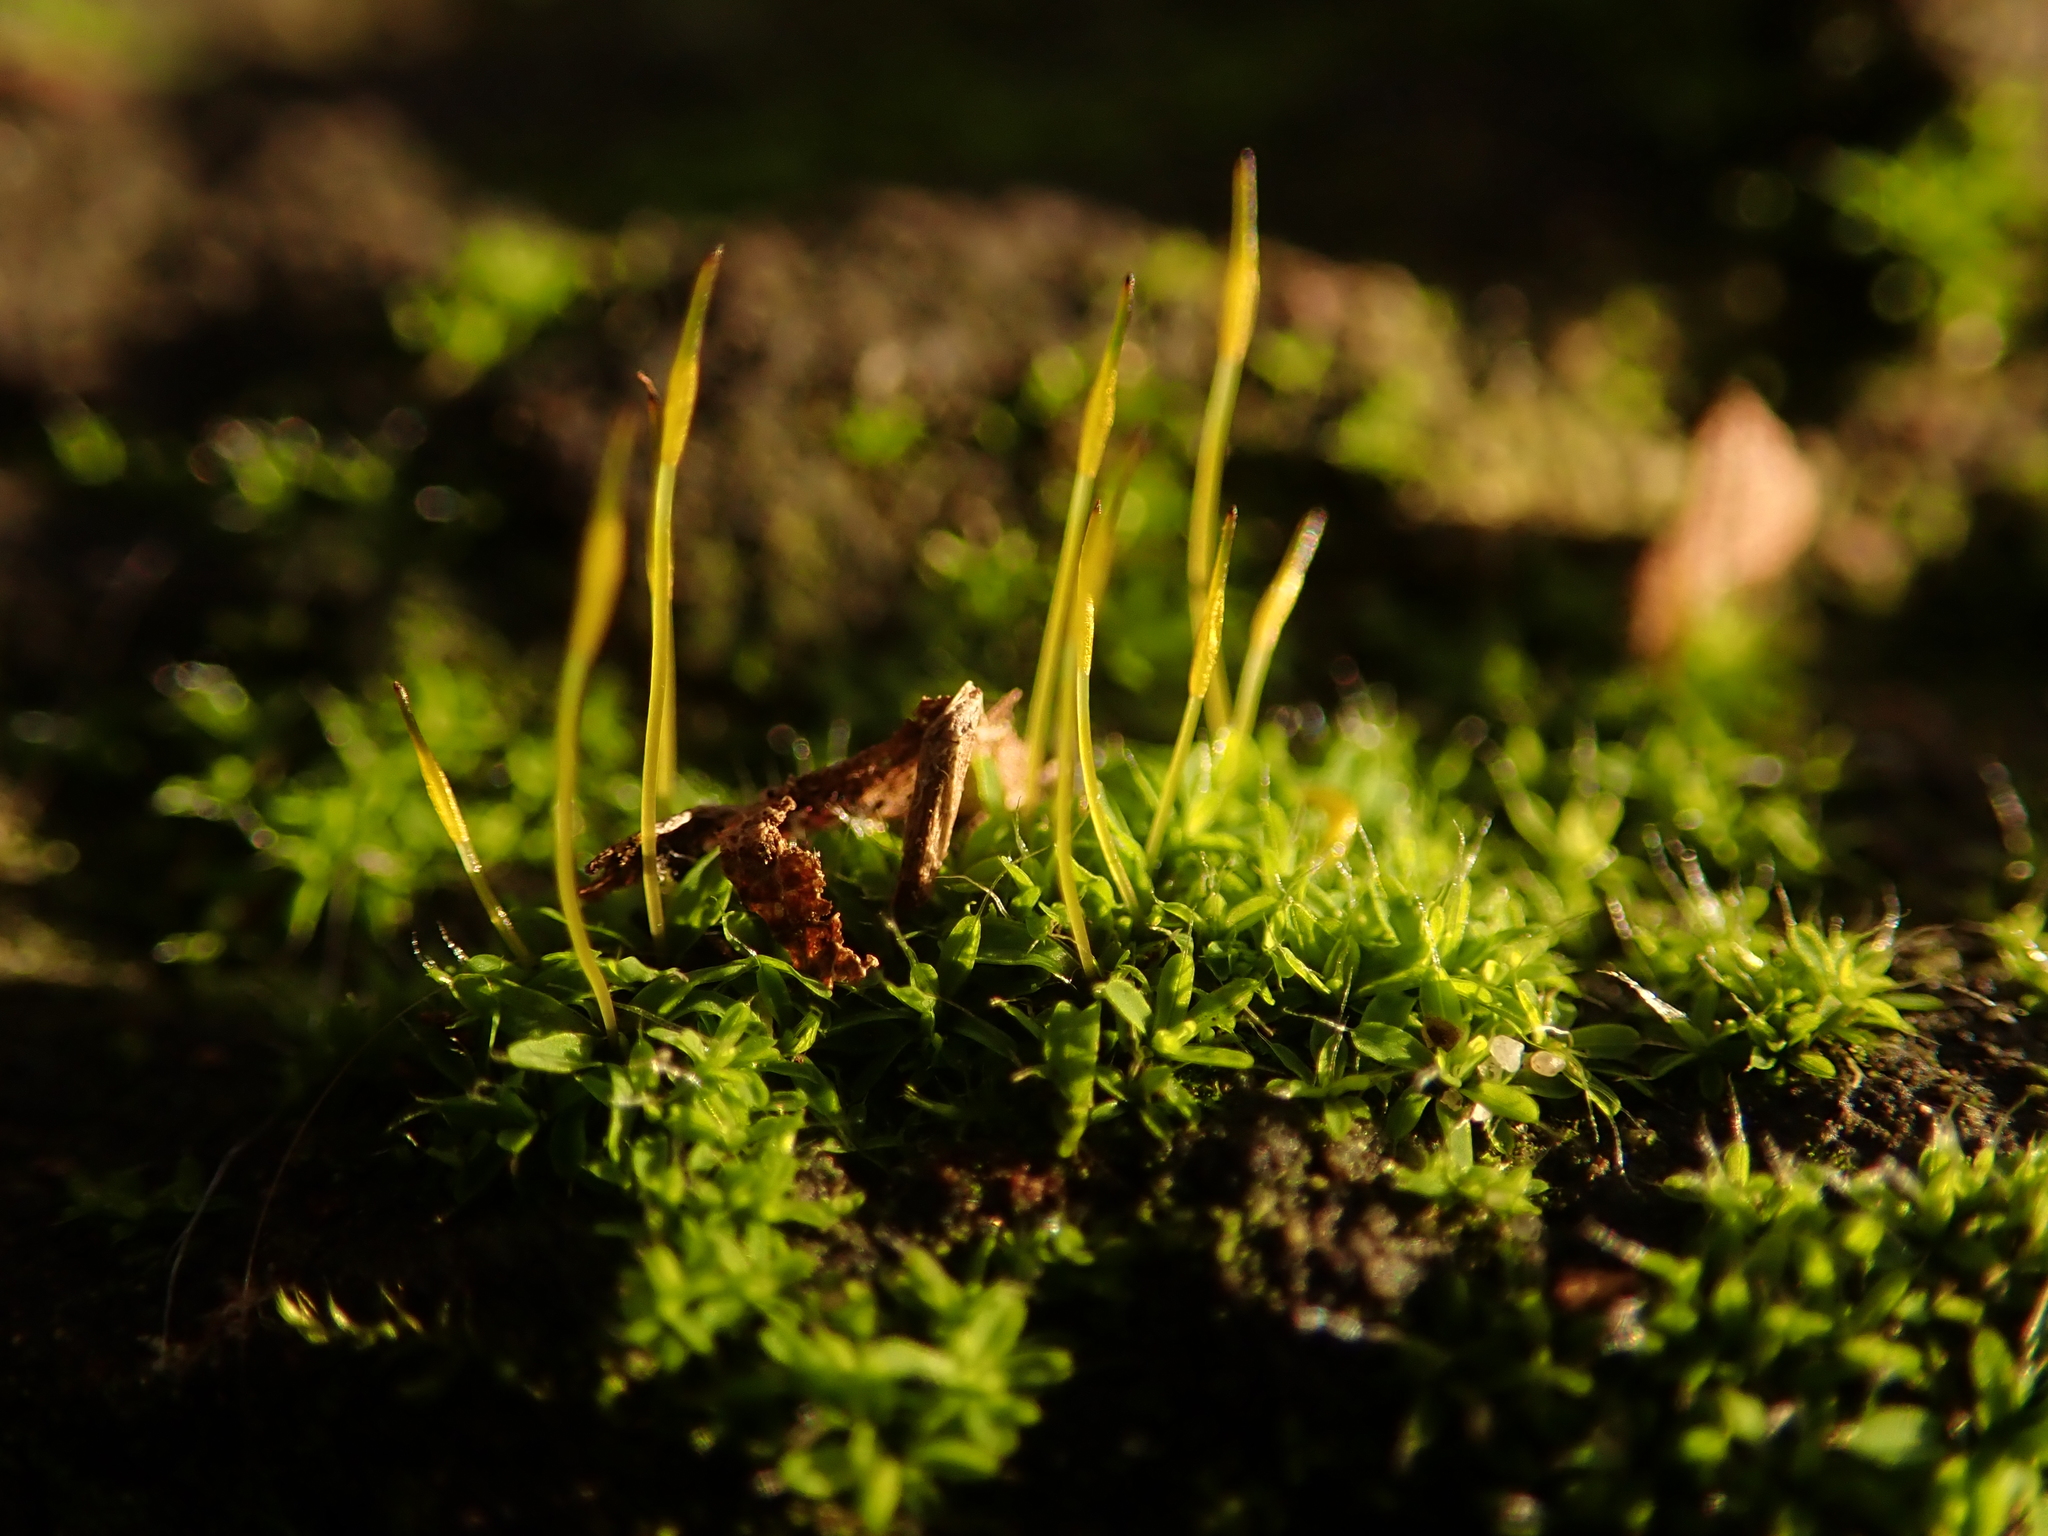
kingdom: Plantae
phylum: Bryophyta
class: Bryopsida
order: Pottiales
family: Pottiaceae
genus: Tortula
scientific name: Tortula muralis
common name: Wall screw-moss
